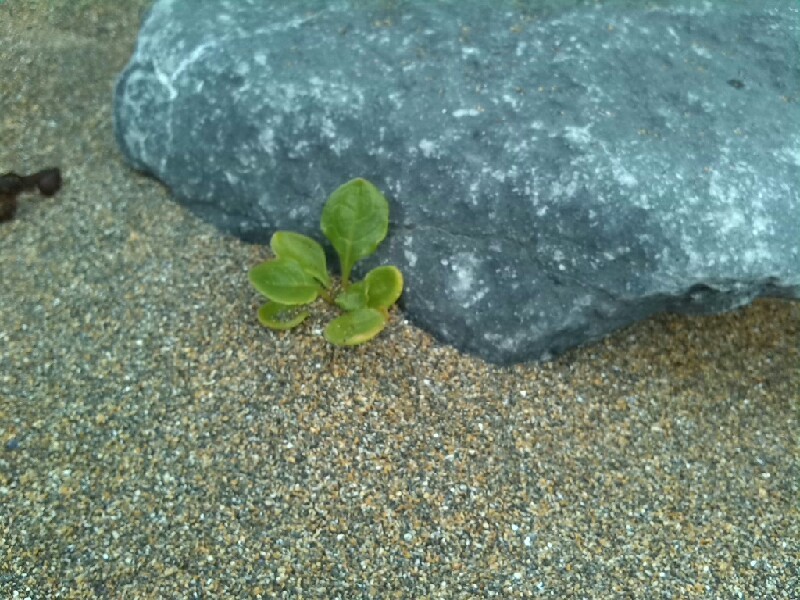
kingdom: Plantae
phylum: Tracheophyta
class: Magnoliopsida
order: Caryophyllales
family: Amaranthaceae
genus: Beta
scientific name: Beta vulgaris
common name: Beet
